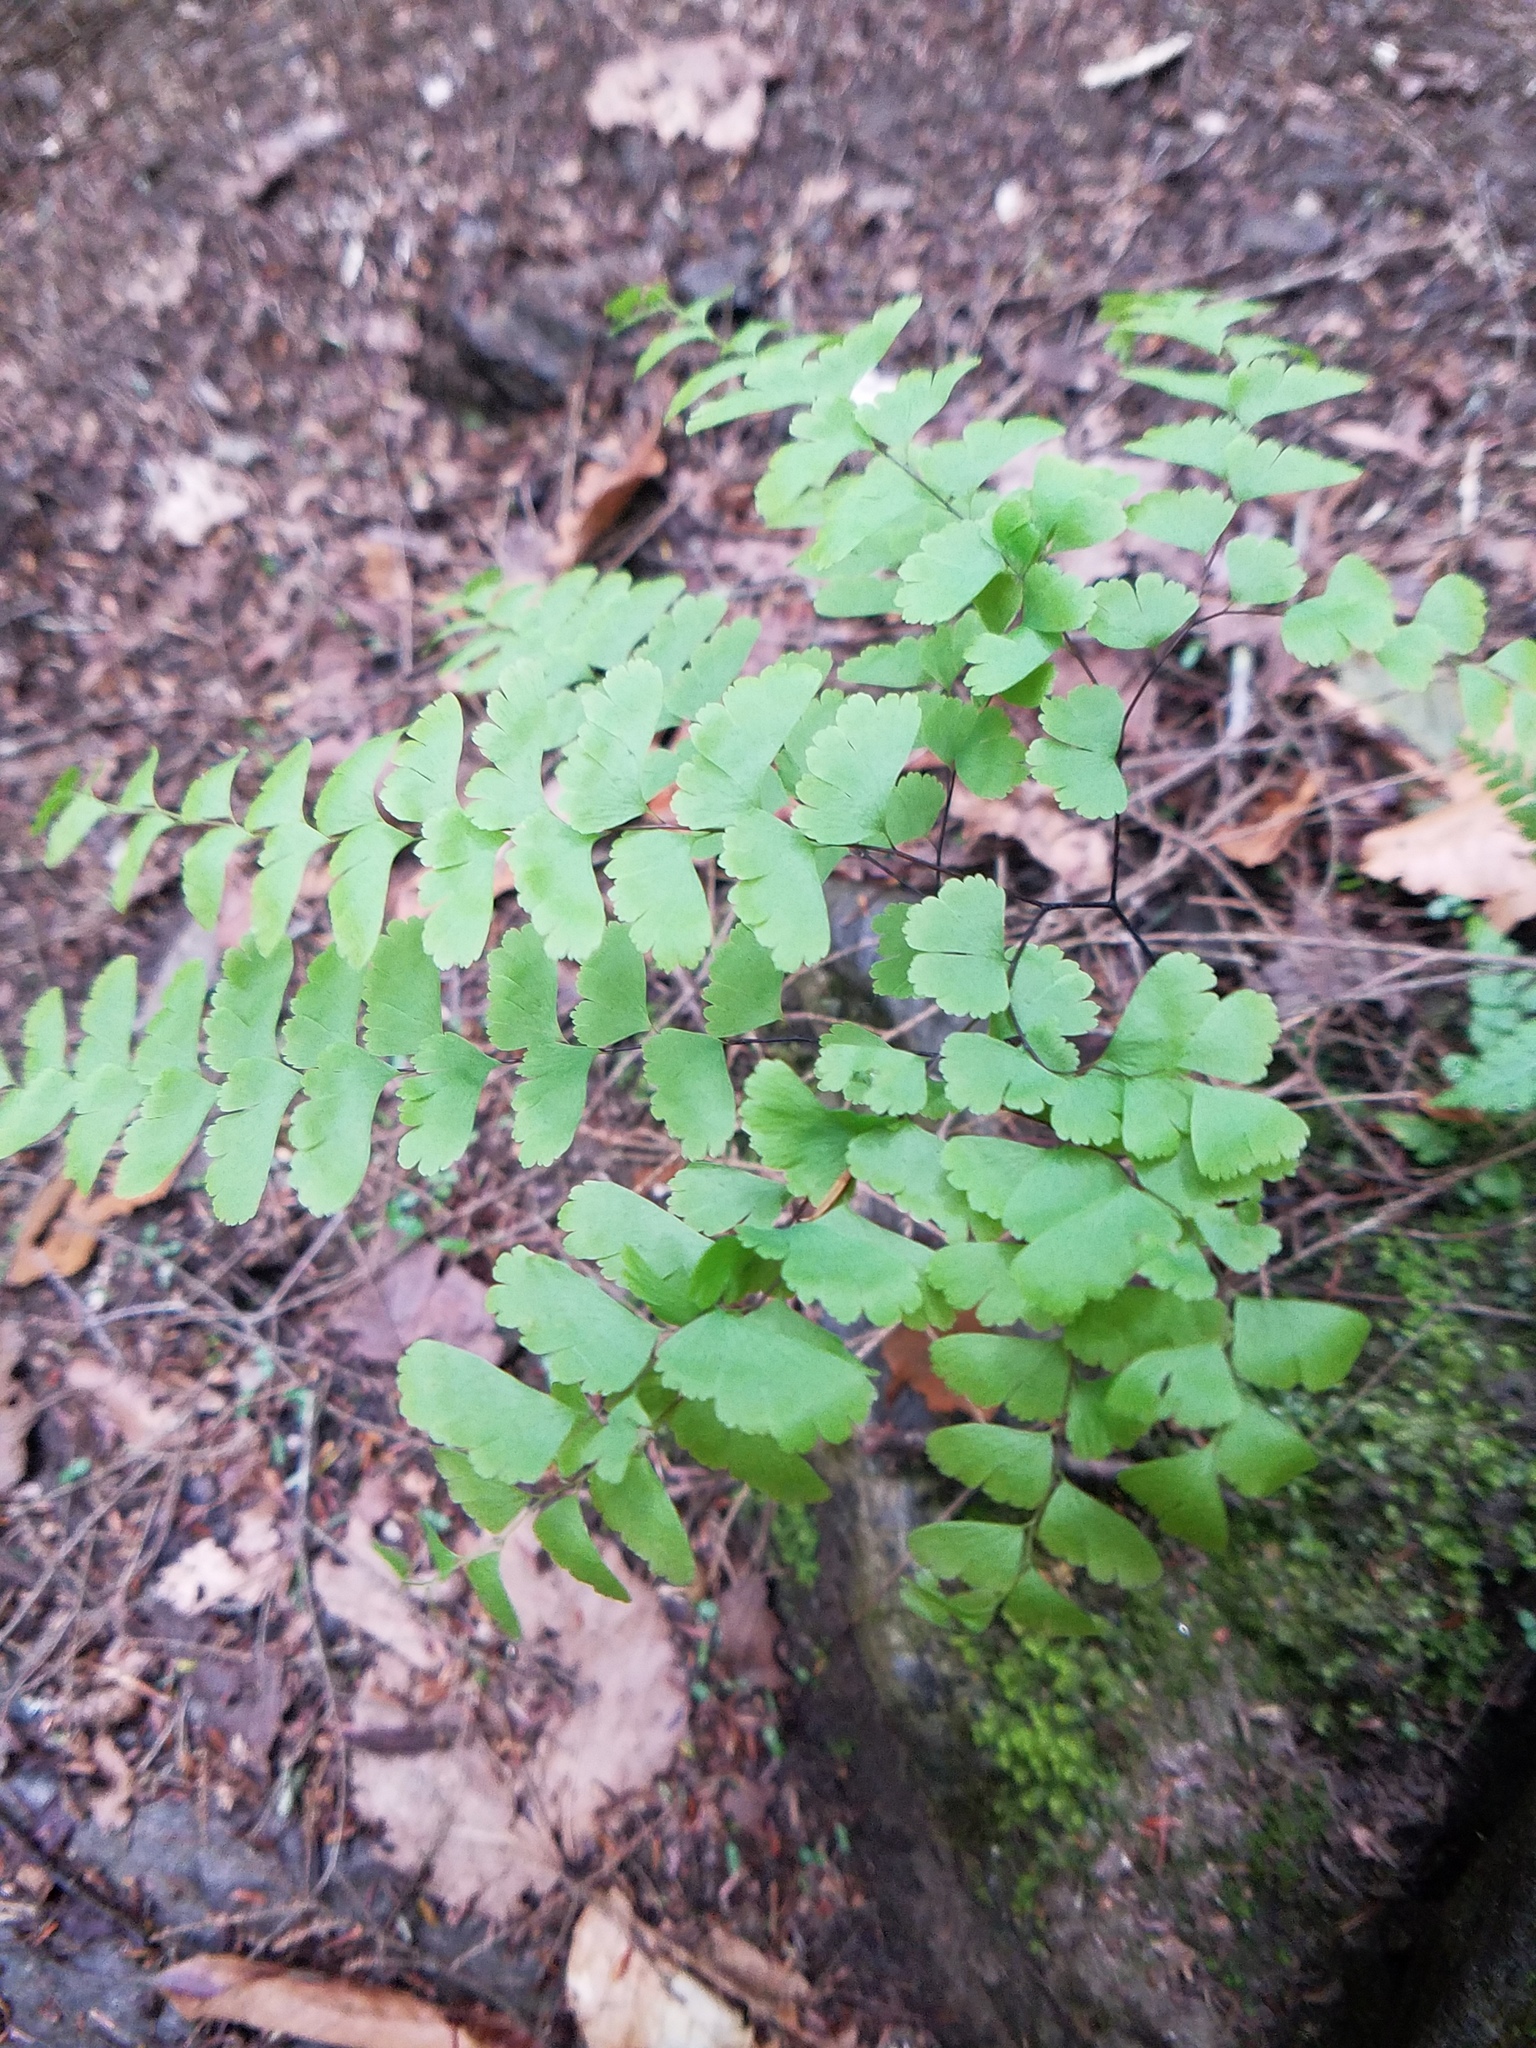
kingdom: Plantae
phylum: Tracheophyta
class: Polypodiopsida
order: Polypodiales
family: Pteridaceae
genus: Adiantum
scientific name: Adiantum pedatum
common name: Five-finger fern
